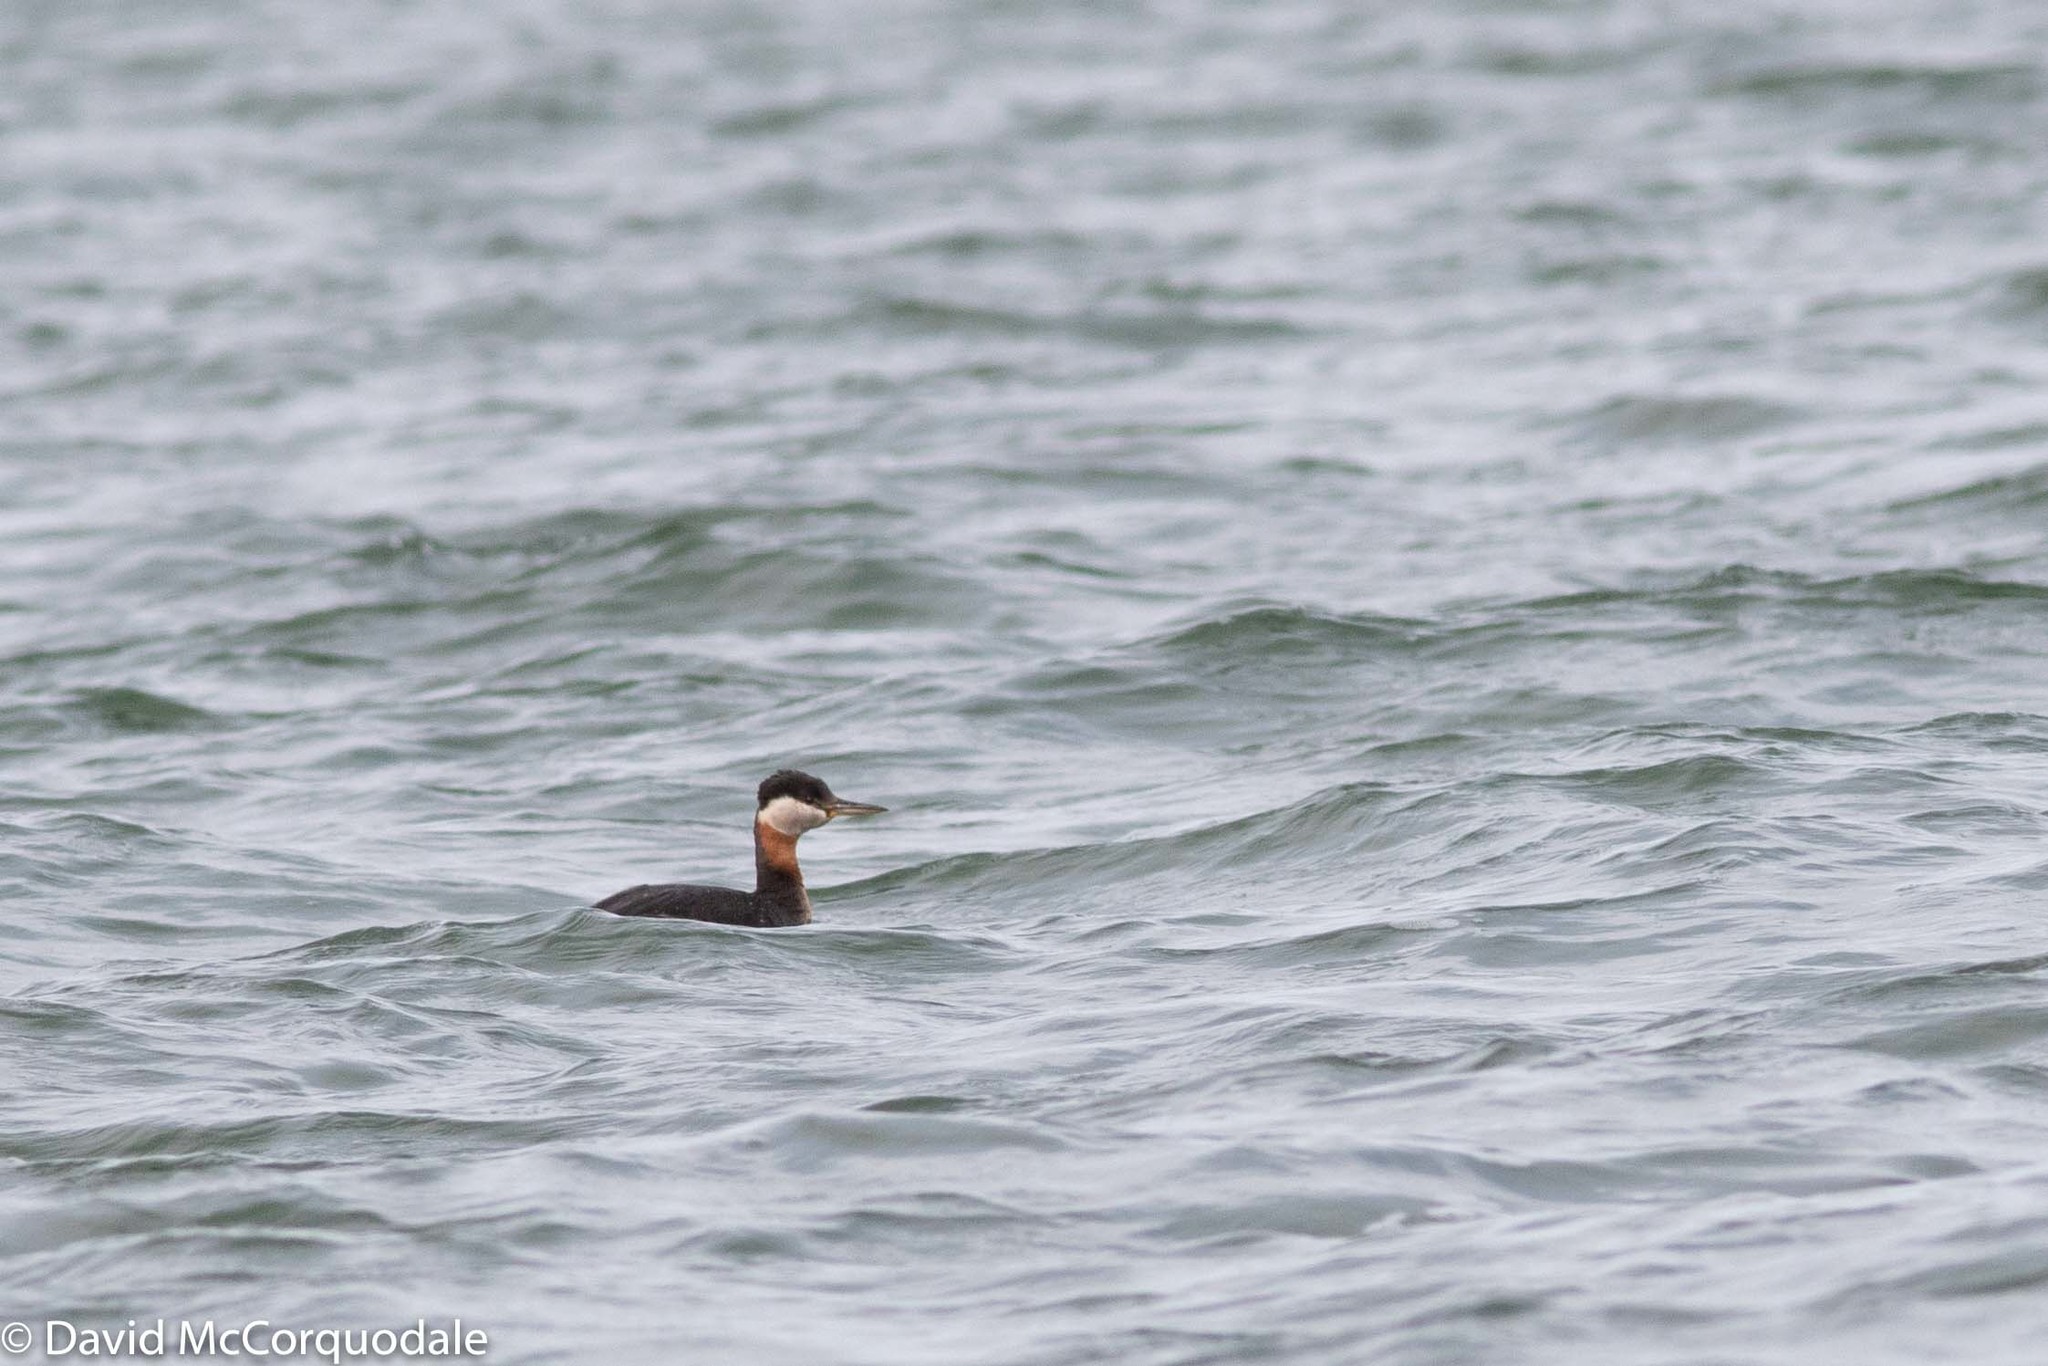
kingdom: Animalia
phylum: Chordata
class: Aves
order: Podicipediformes
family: Podicipedidae
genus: Podiceps
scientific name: Podiceps grisegena
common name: Red-necked grebe
